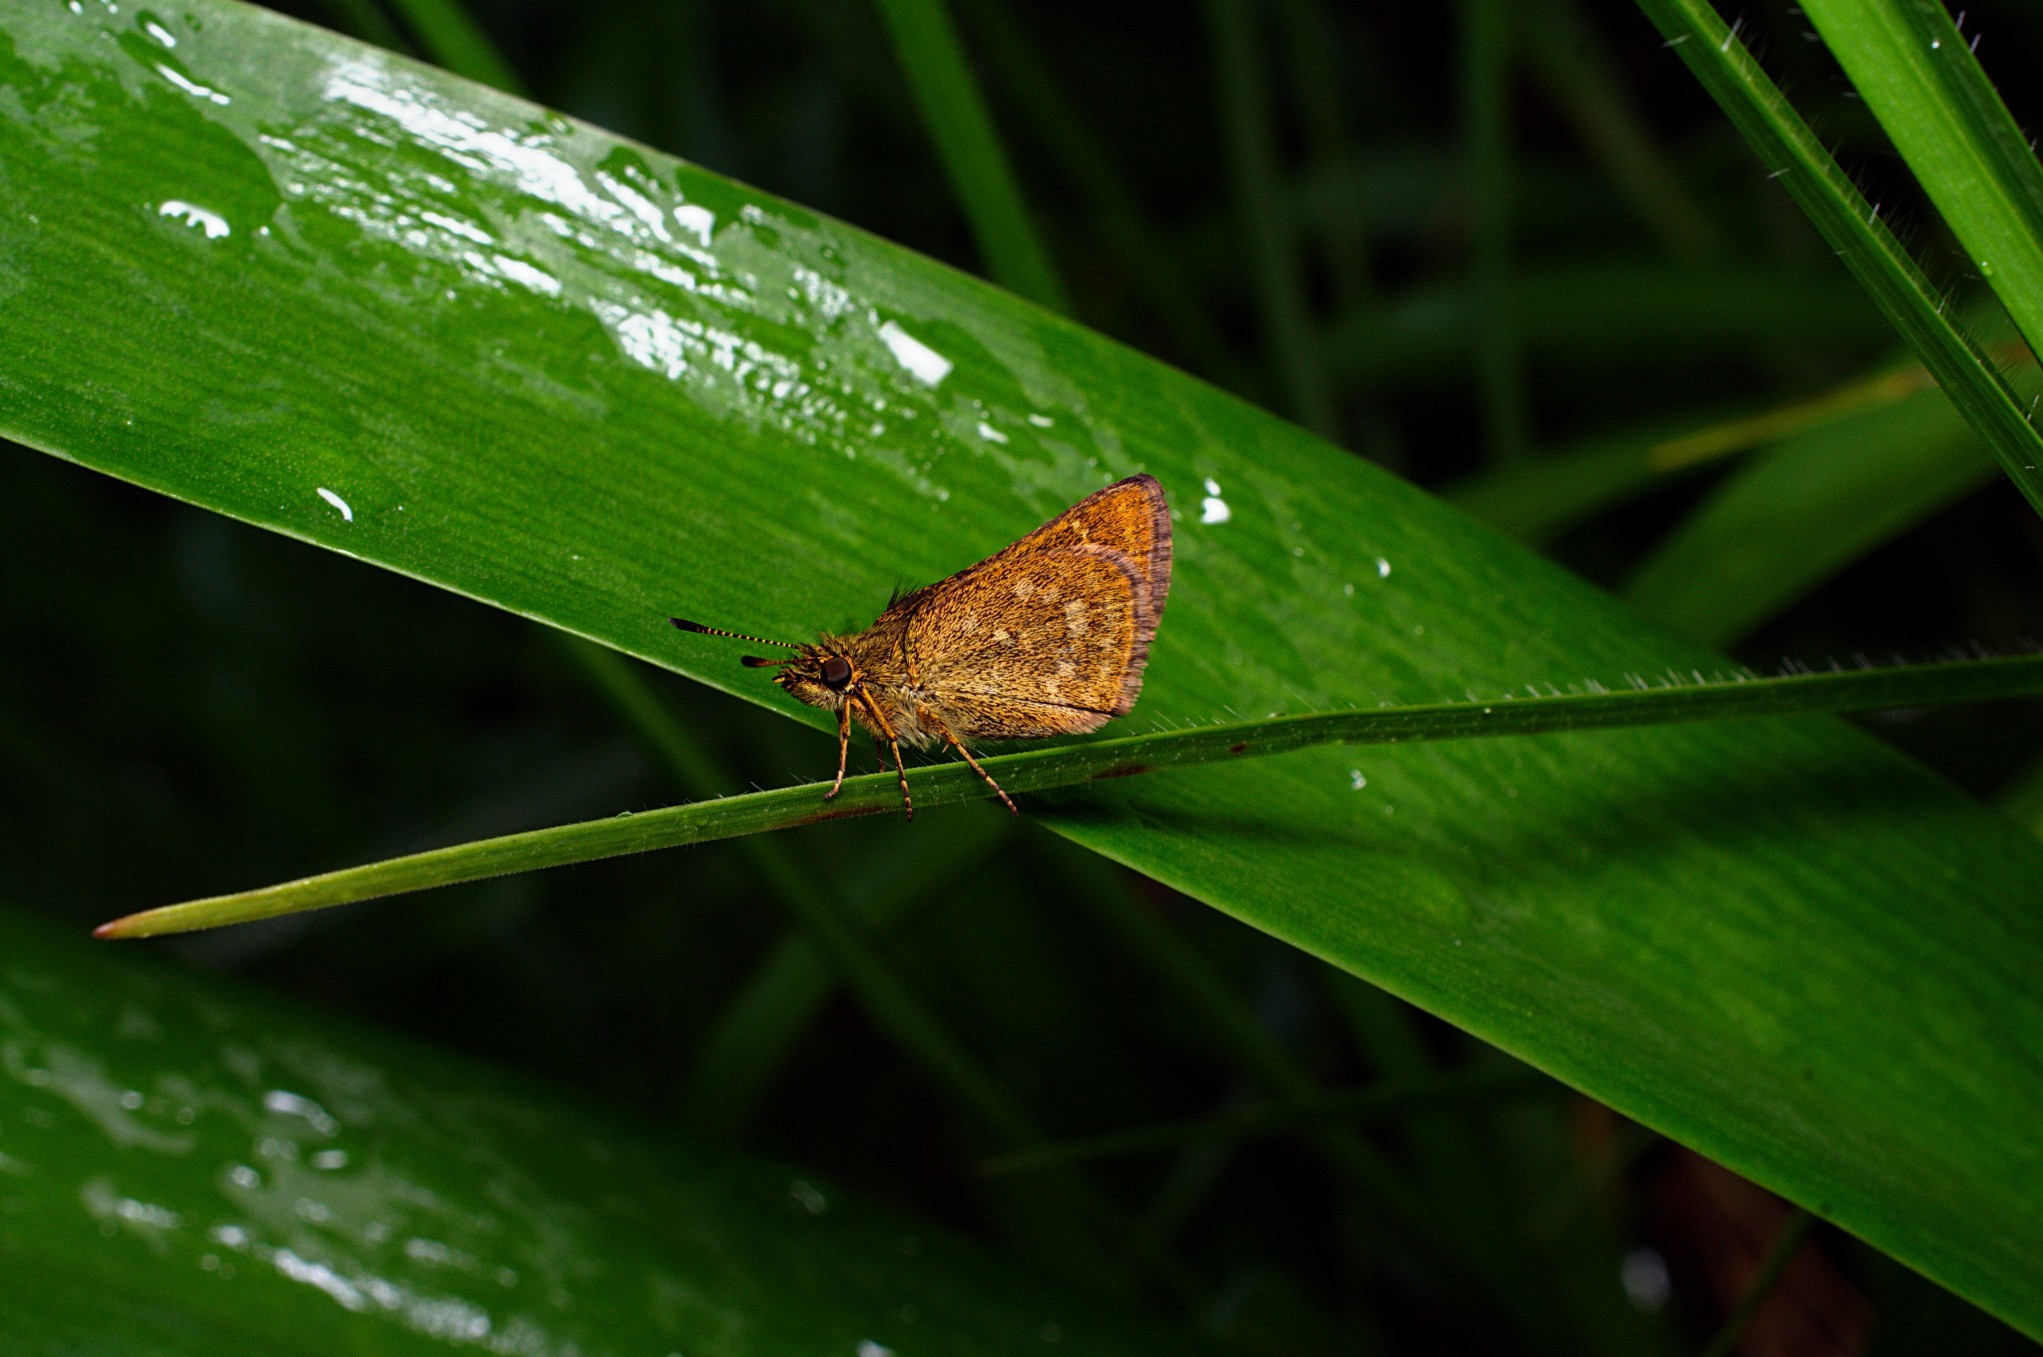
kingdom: Animalia
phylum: Arthropoda
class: Insecta
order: Lepidoptera
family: Hesperiidae
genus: Aeromachus
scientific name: Aeromachus dubius
